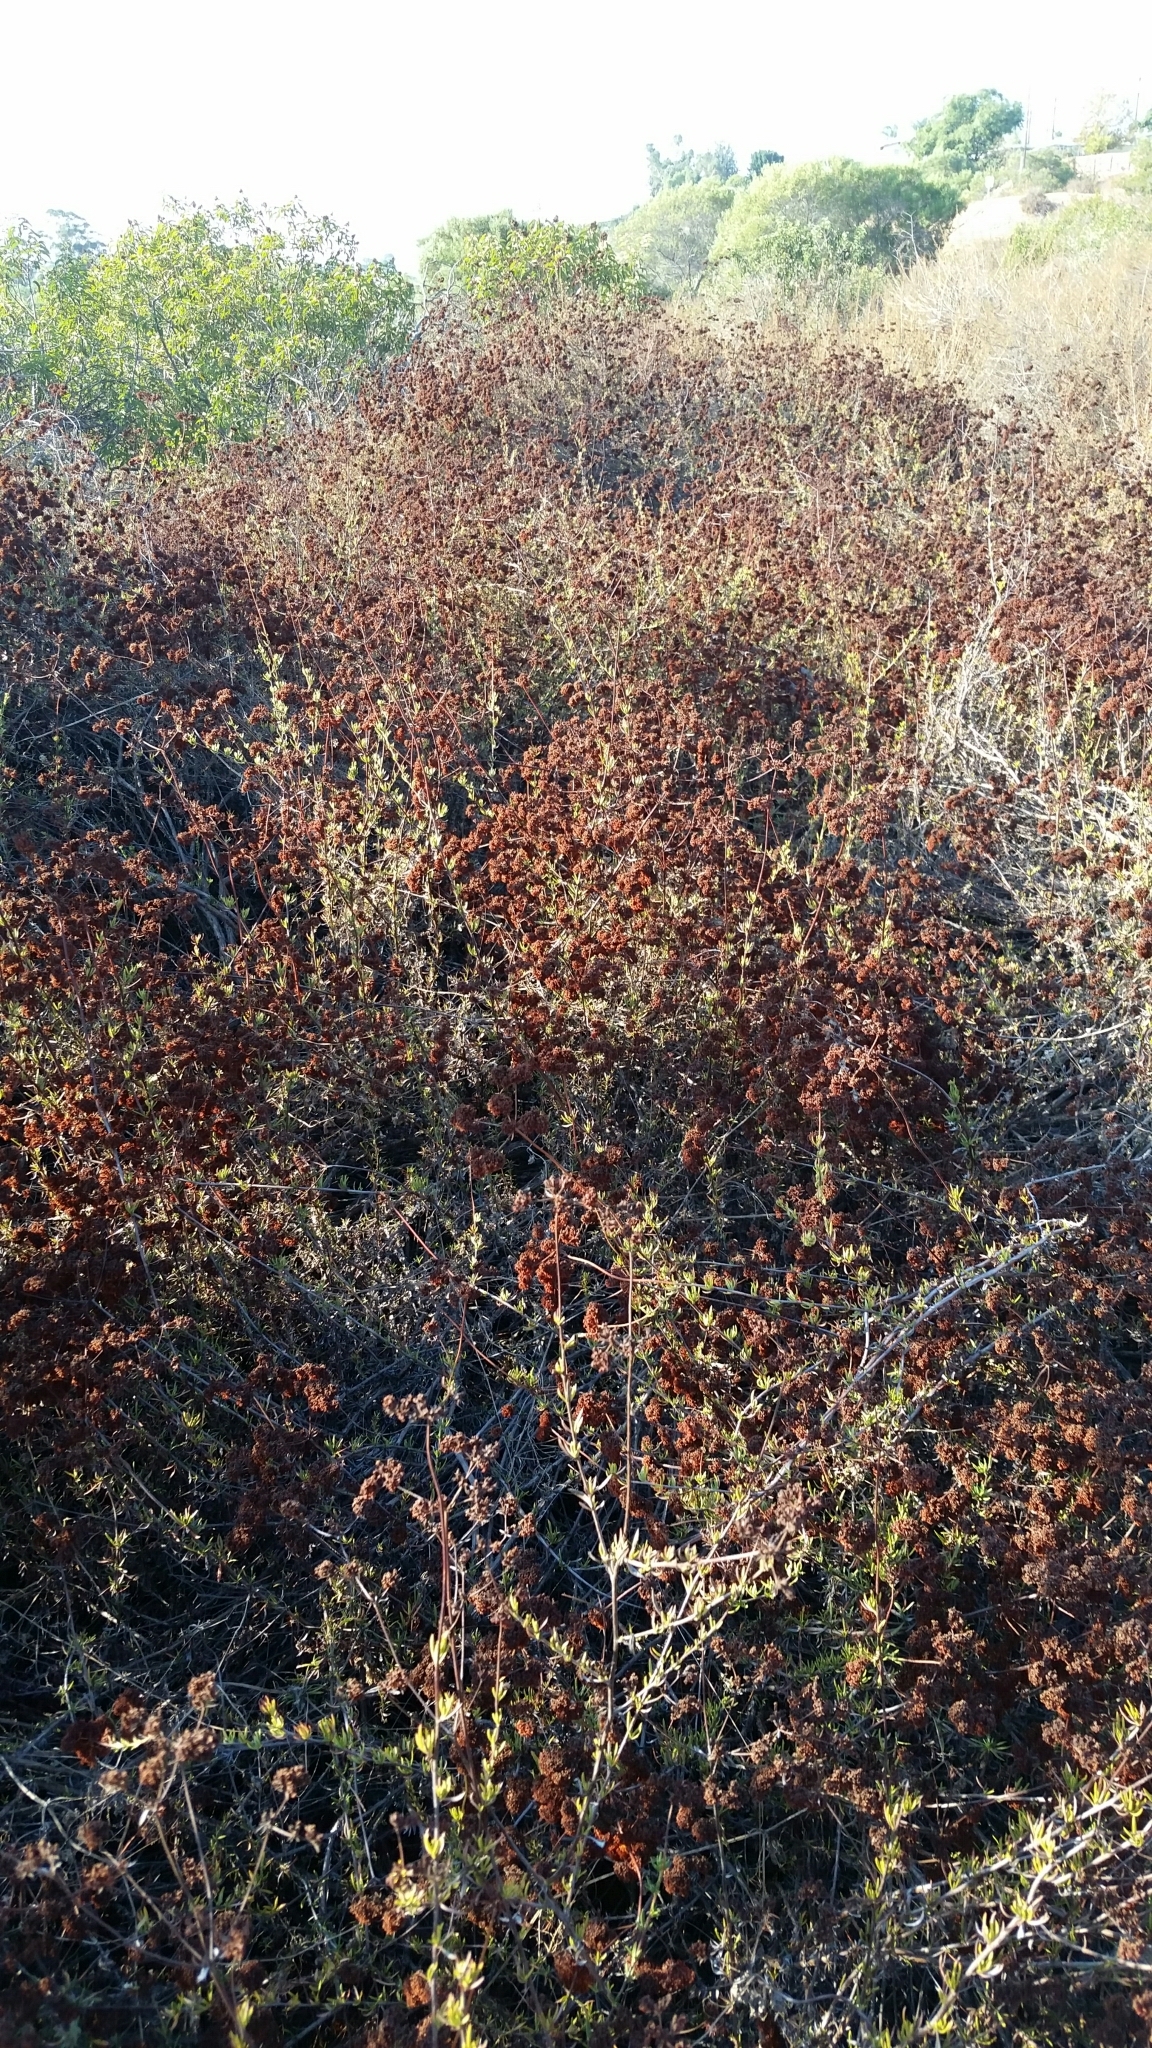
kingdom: Plantae
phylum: Tracheophyta
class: Magnoliopsida
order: Caryophyllales
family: Polygonaceae
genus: Eriogonum
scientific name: Eriogonum fasciculatum
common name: California wild buckwheat
